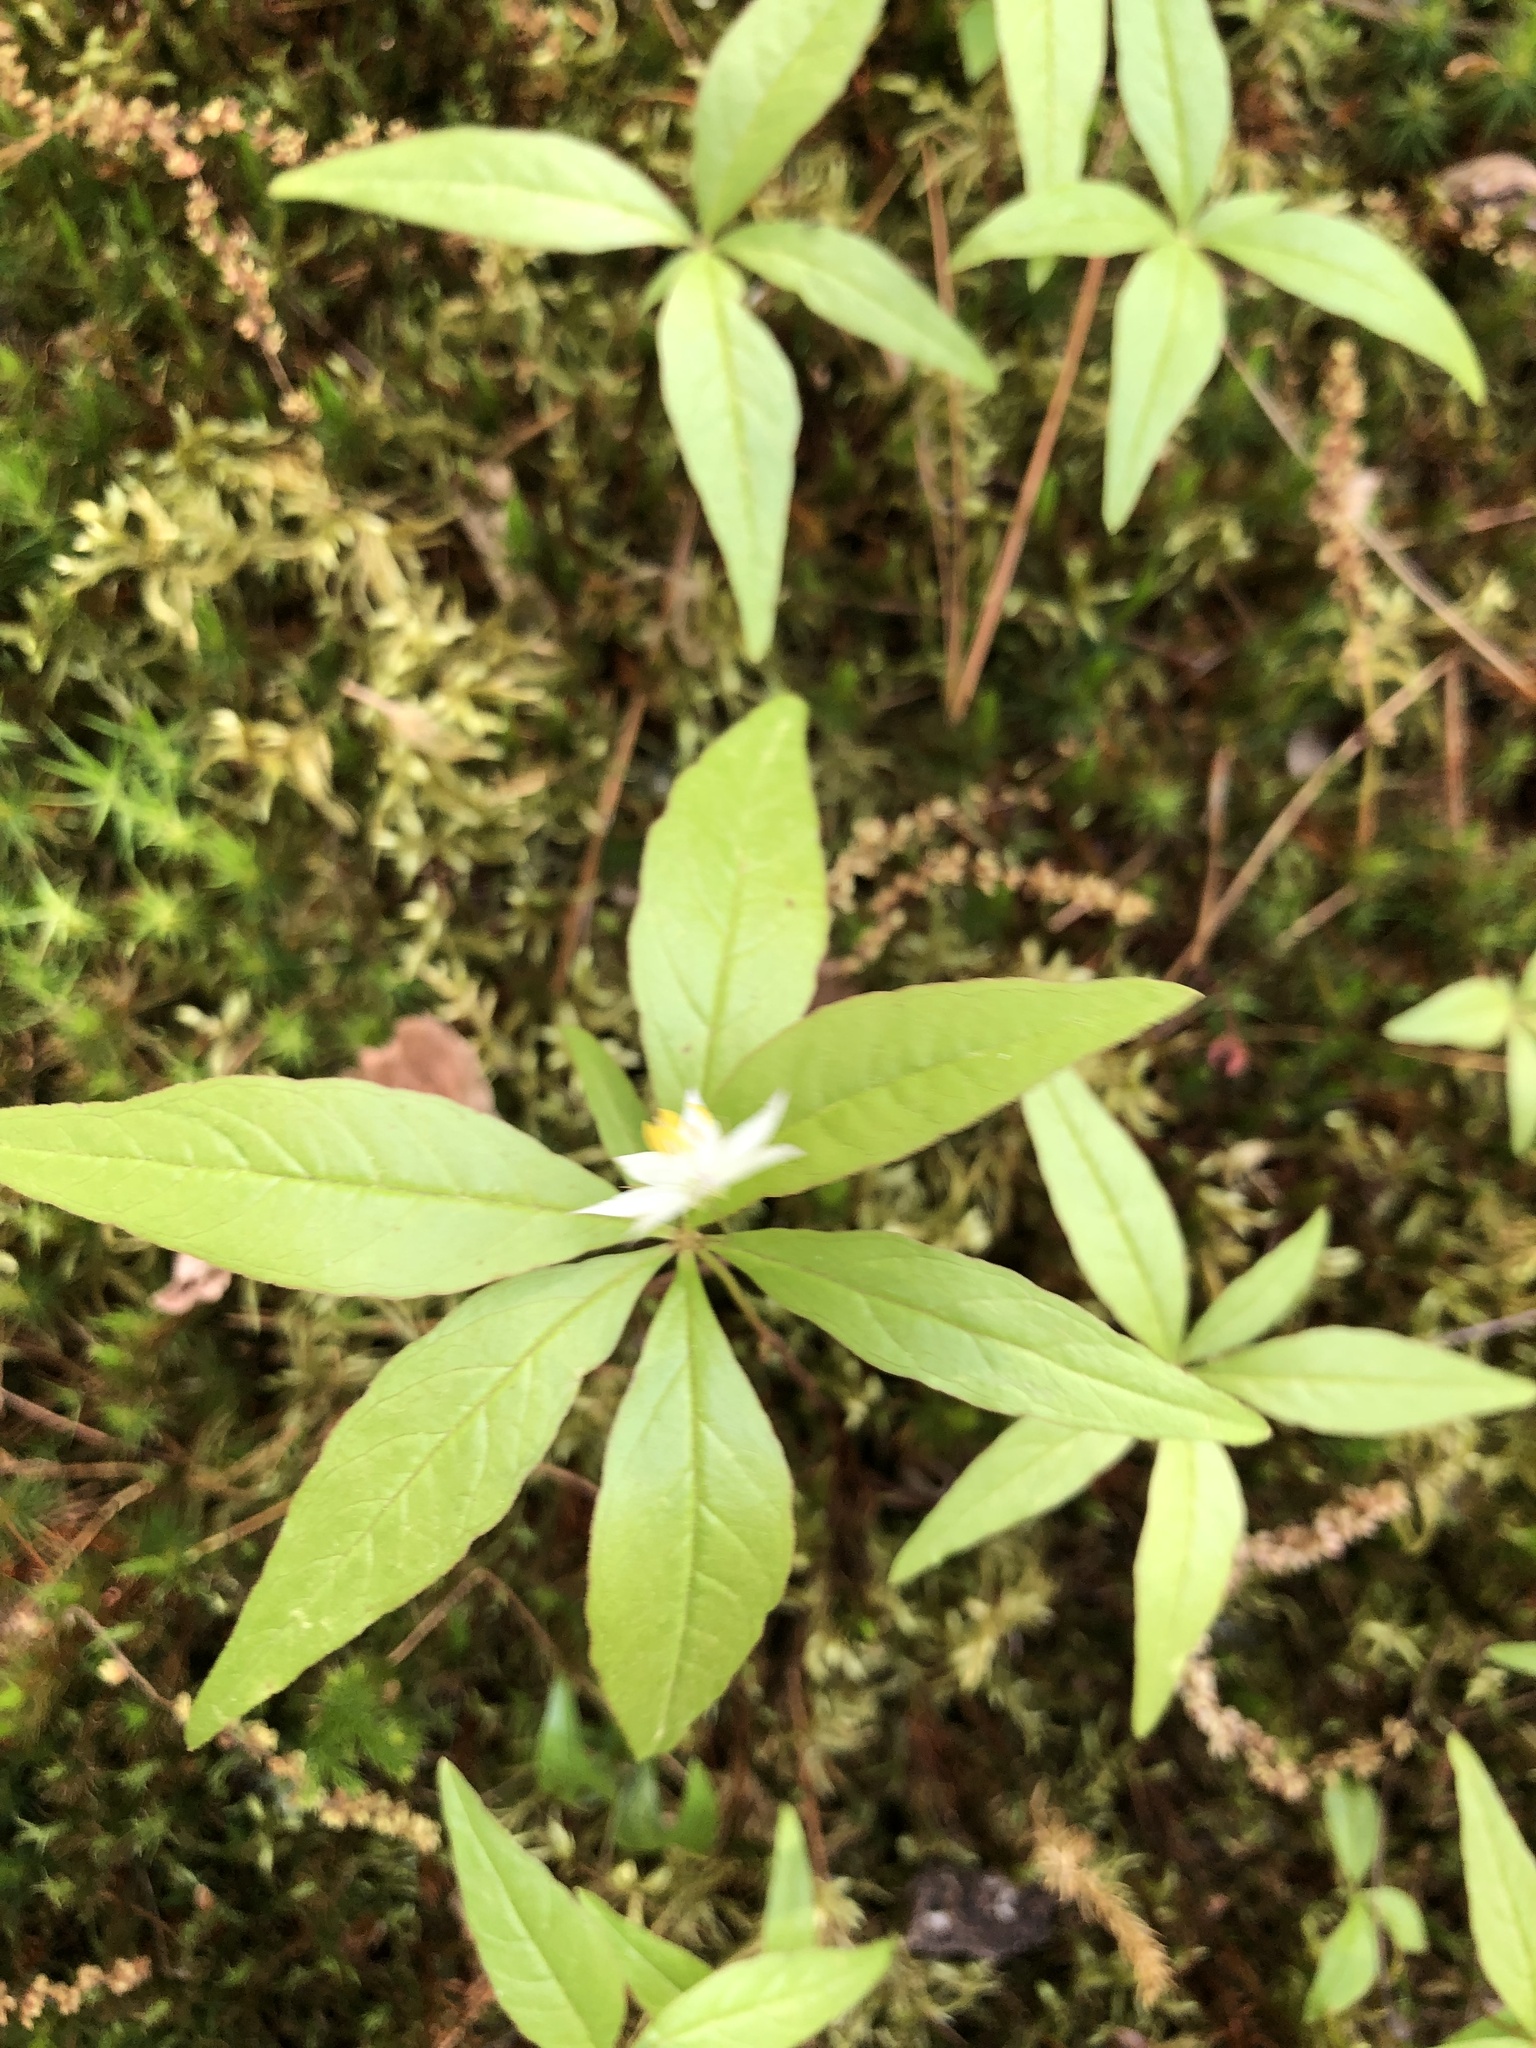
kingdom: Plantae
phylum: Tracheophyta
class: Magnoliopsida
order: Ericales
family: Primulaceae
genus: Lysimachia
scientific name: Lysimachia borealis
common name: American starflower
